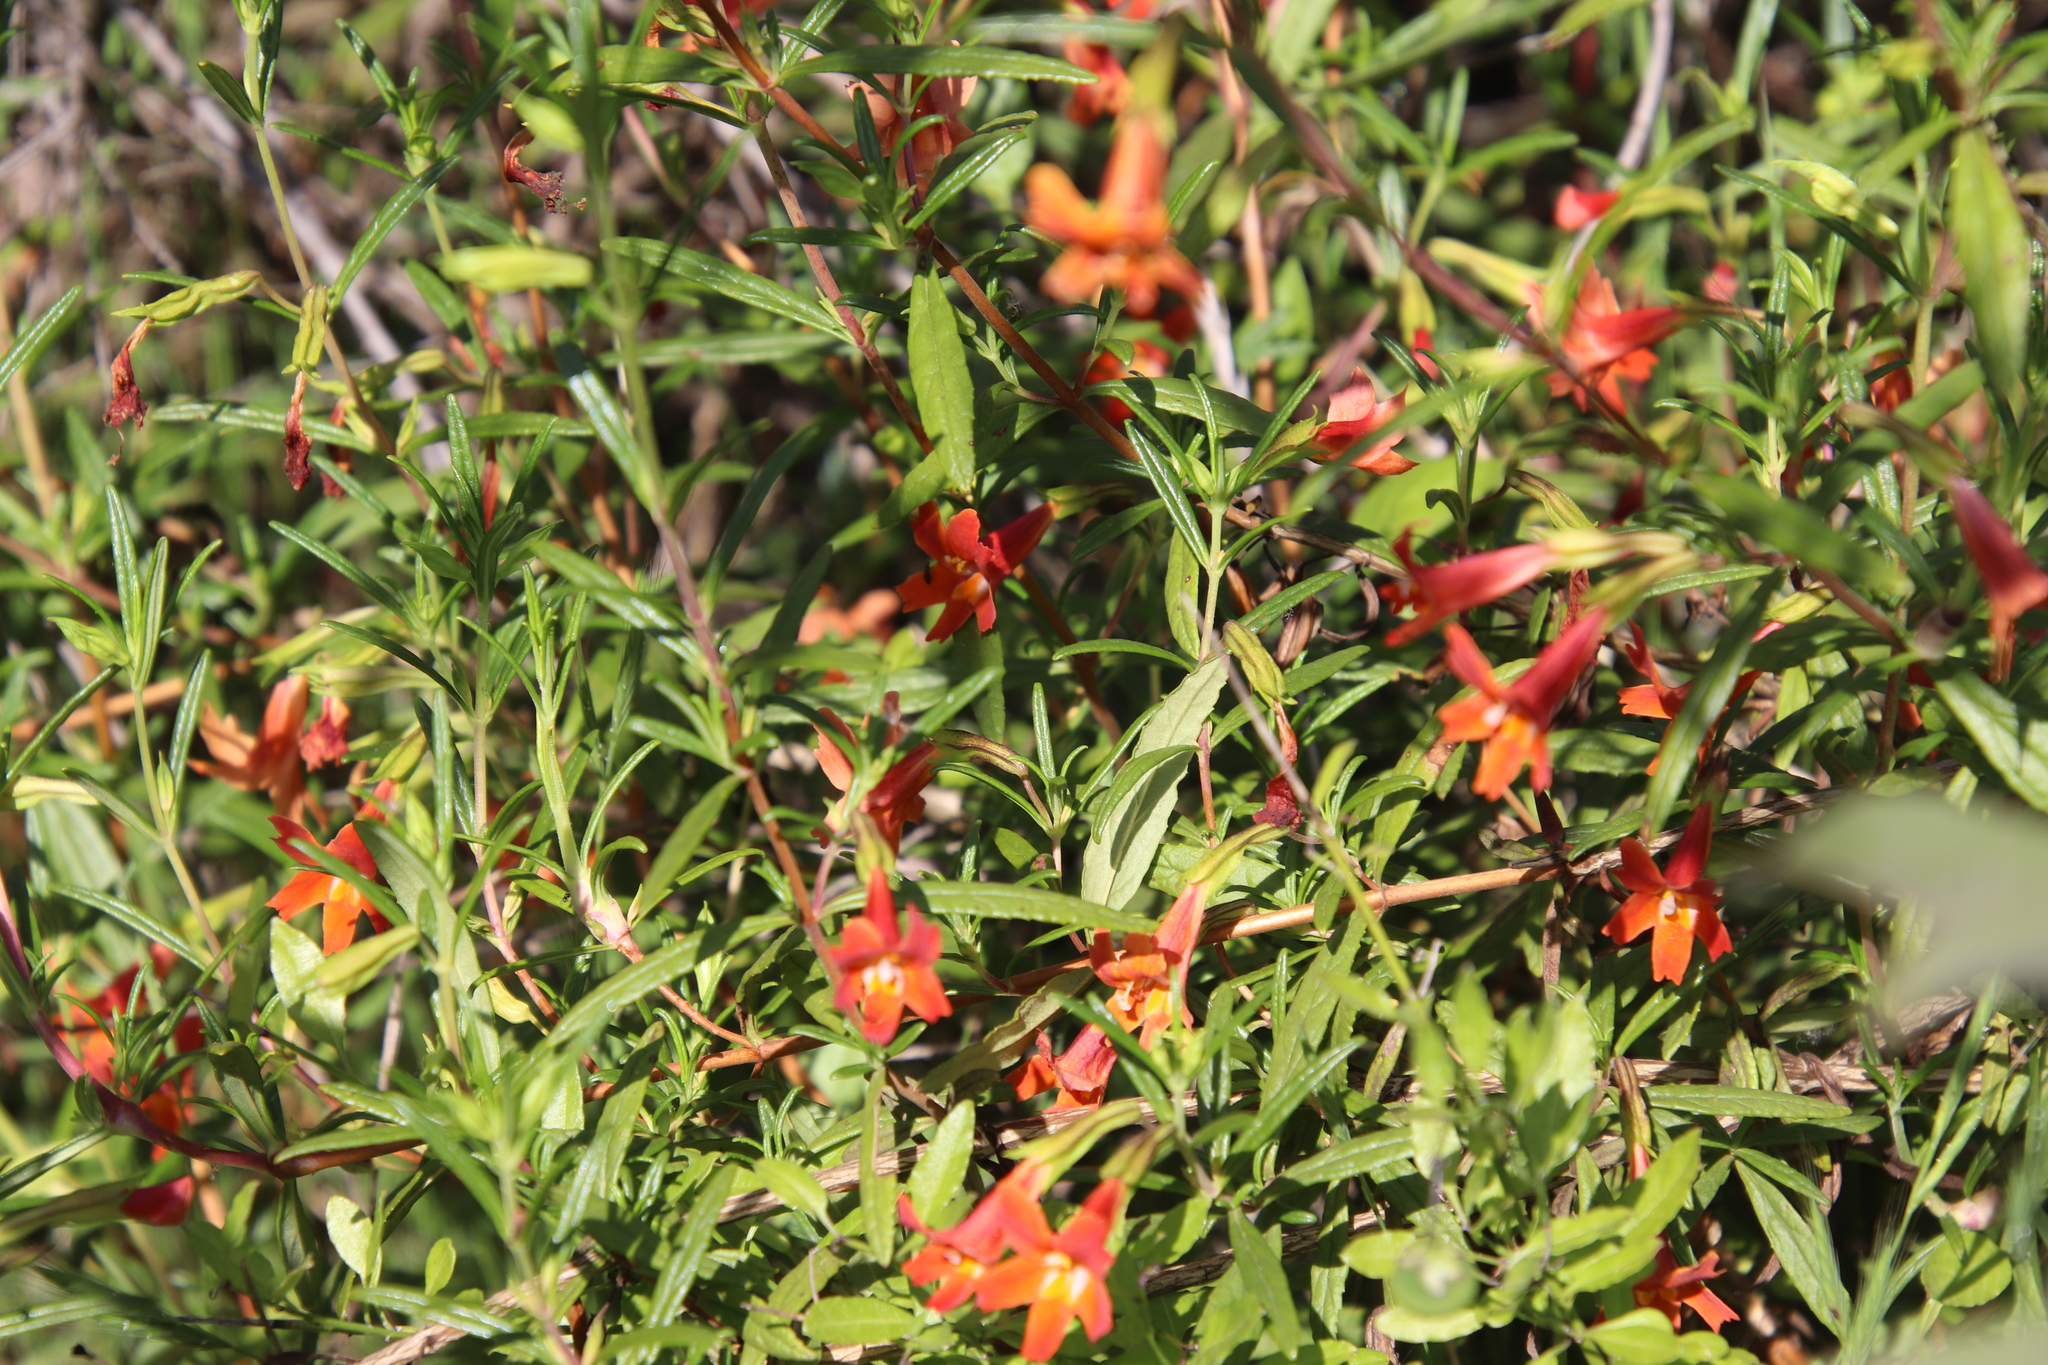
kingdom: Plantae
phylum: Tracheophyta
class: Magnoliopsida
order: Lamiales
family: Phrymaceae
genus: Diplacus
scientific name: Diplacus australis
